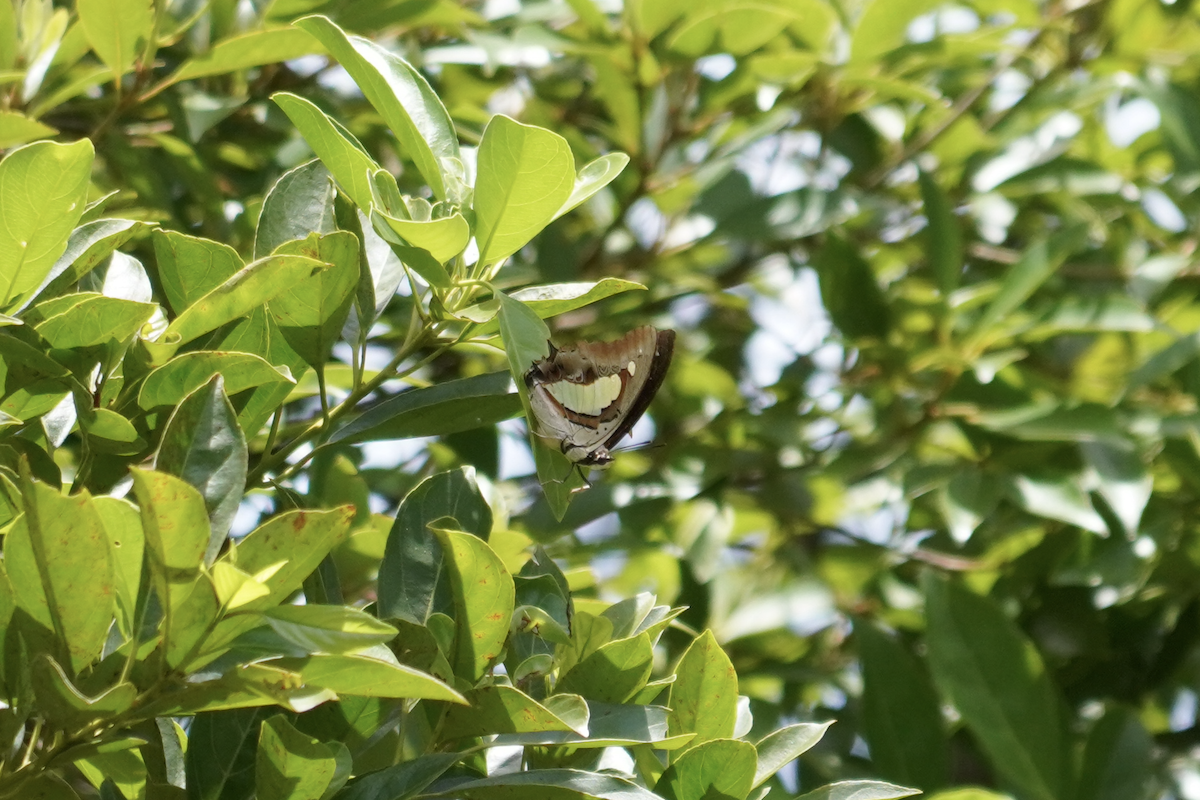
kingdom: Animalia
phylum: Arthropoda
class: Insecta
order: Lepidoptera
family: Nymphalidae
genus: Polyura
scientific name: Polyura athamas
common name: Common nawab
